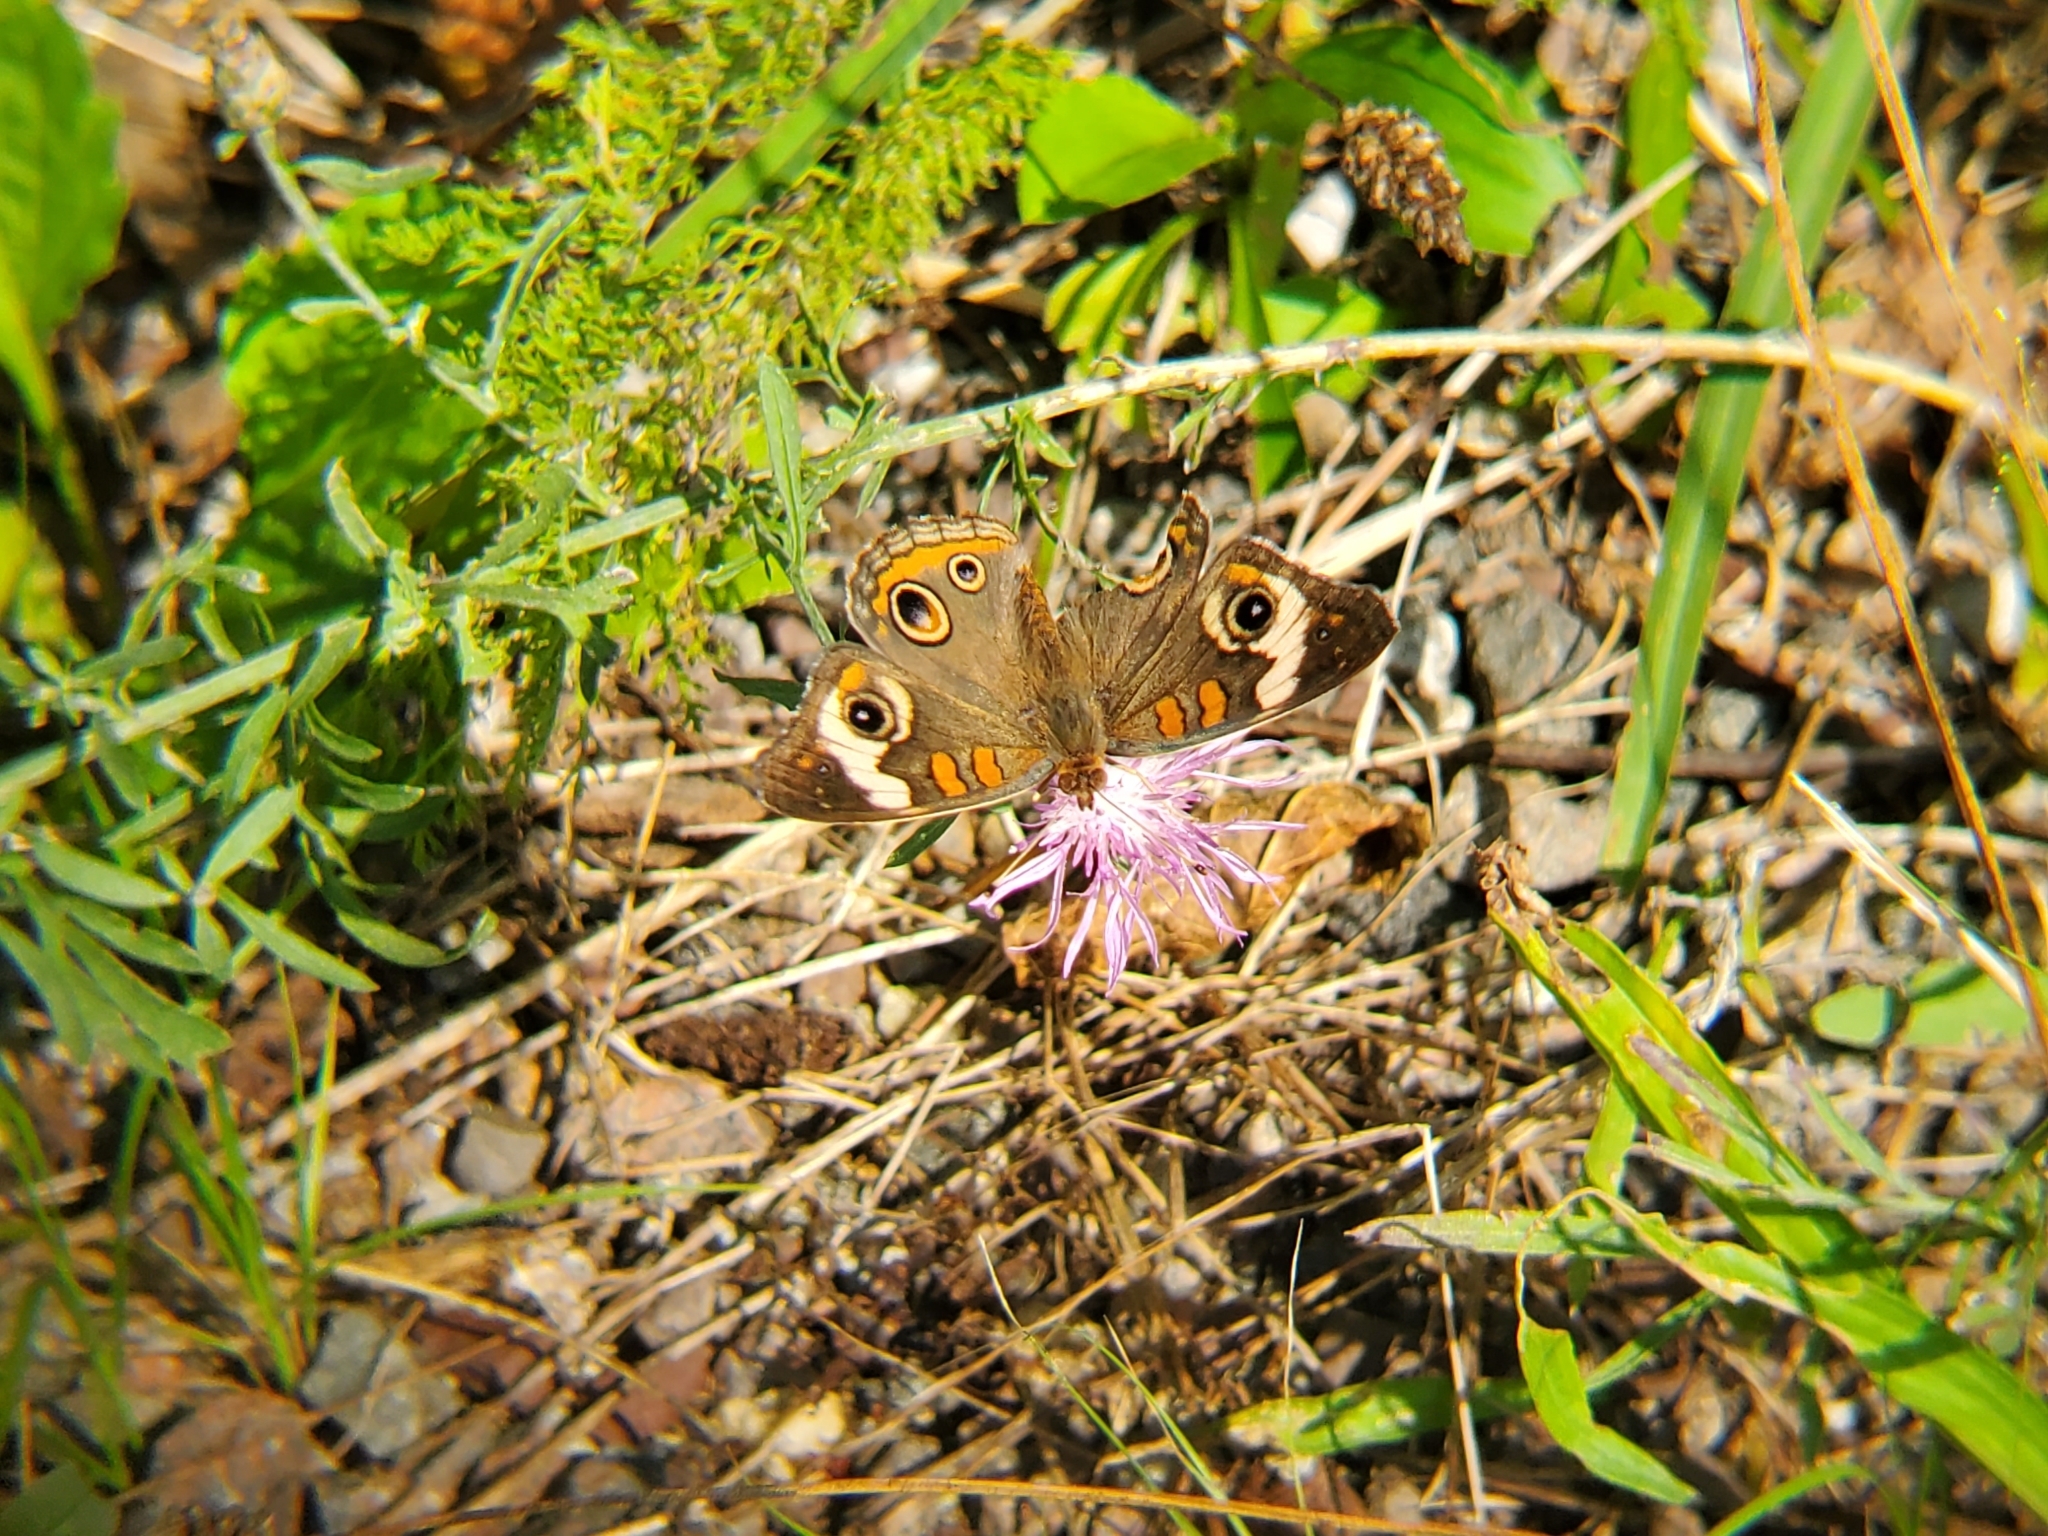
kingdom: Animalia
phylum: Arthropoda
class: Insecta
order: Lepidoptera
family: Nymphalidae
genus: Junonia
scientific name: Junonia coenia
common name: Common buckeye
